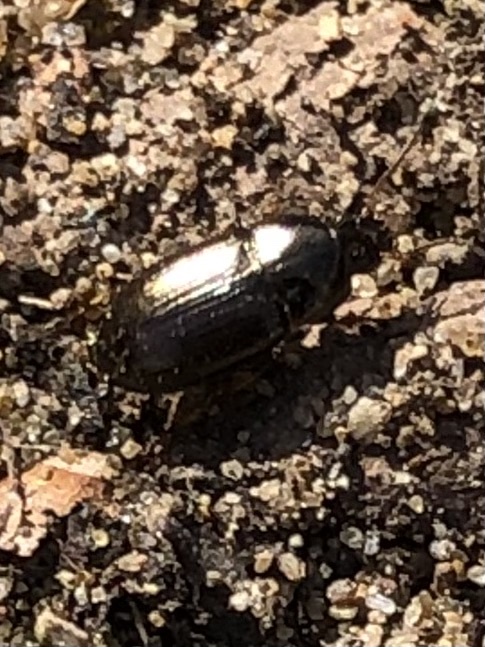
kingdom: Animalia
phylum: Arthropoda
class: Insecta
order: Coleoptera
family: Carabidae
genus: Amara
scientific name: Amara
